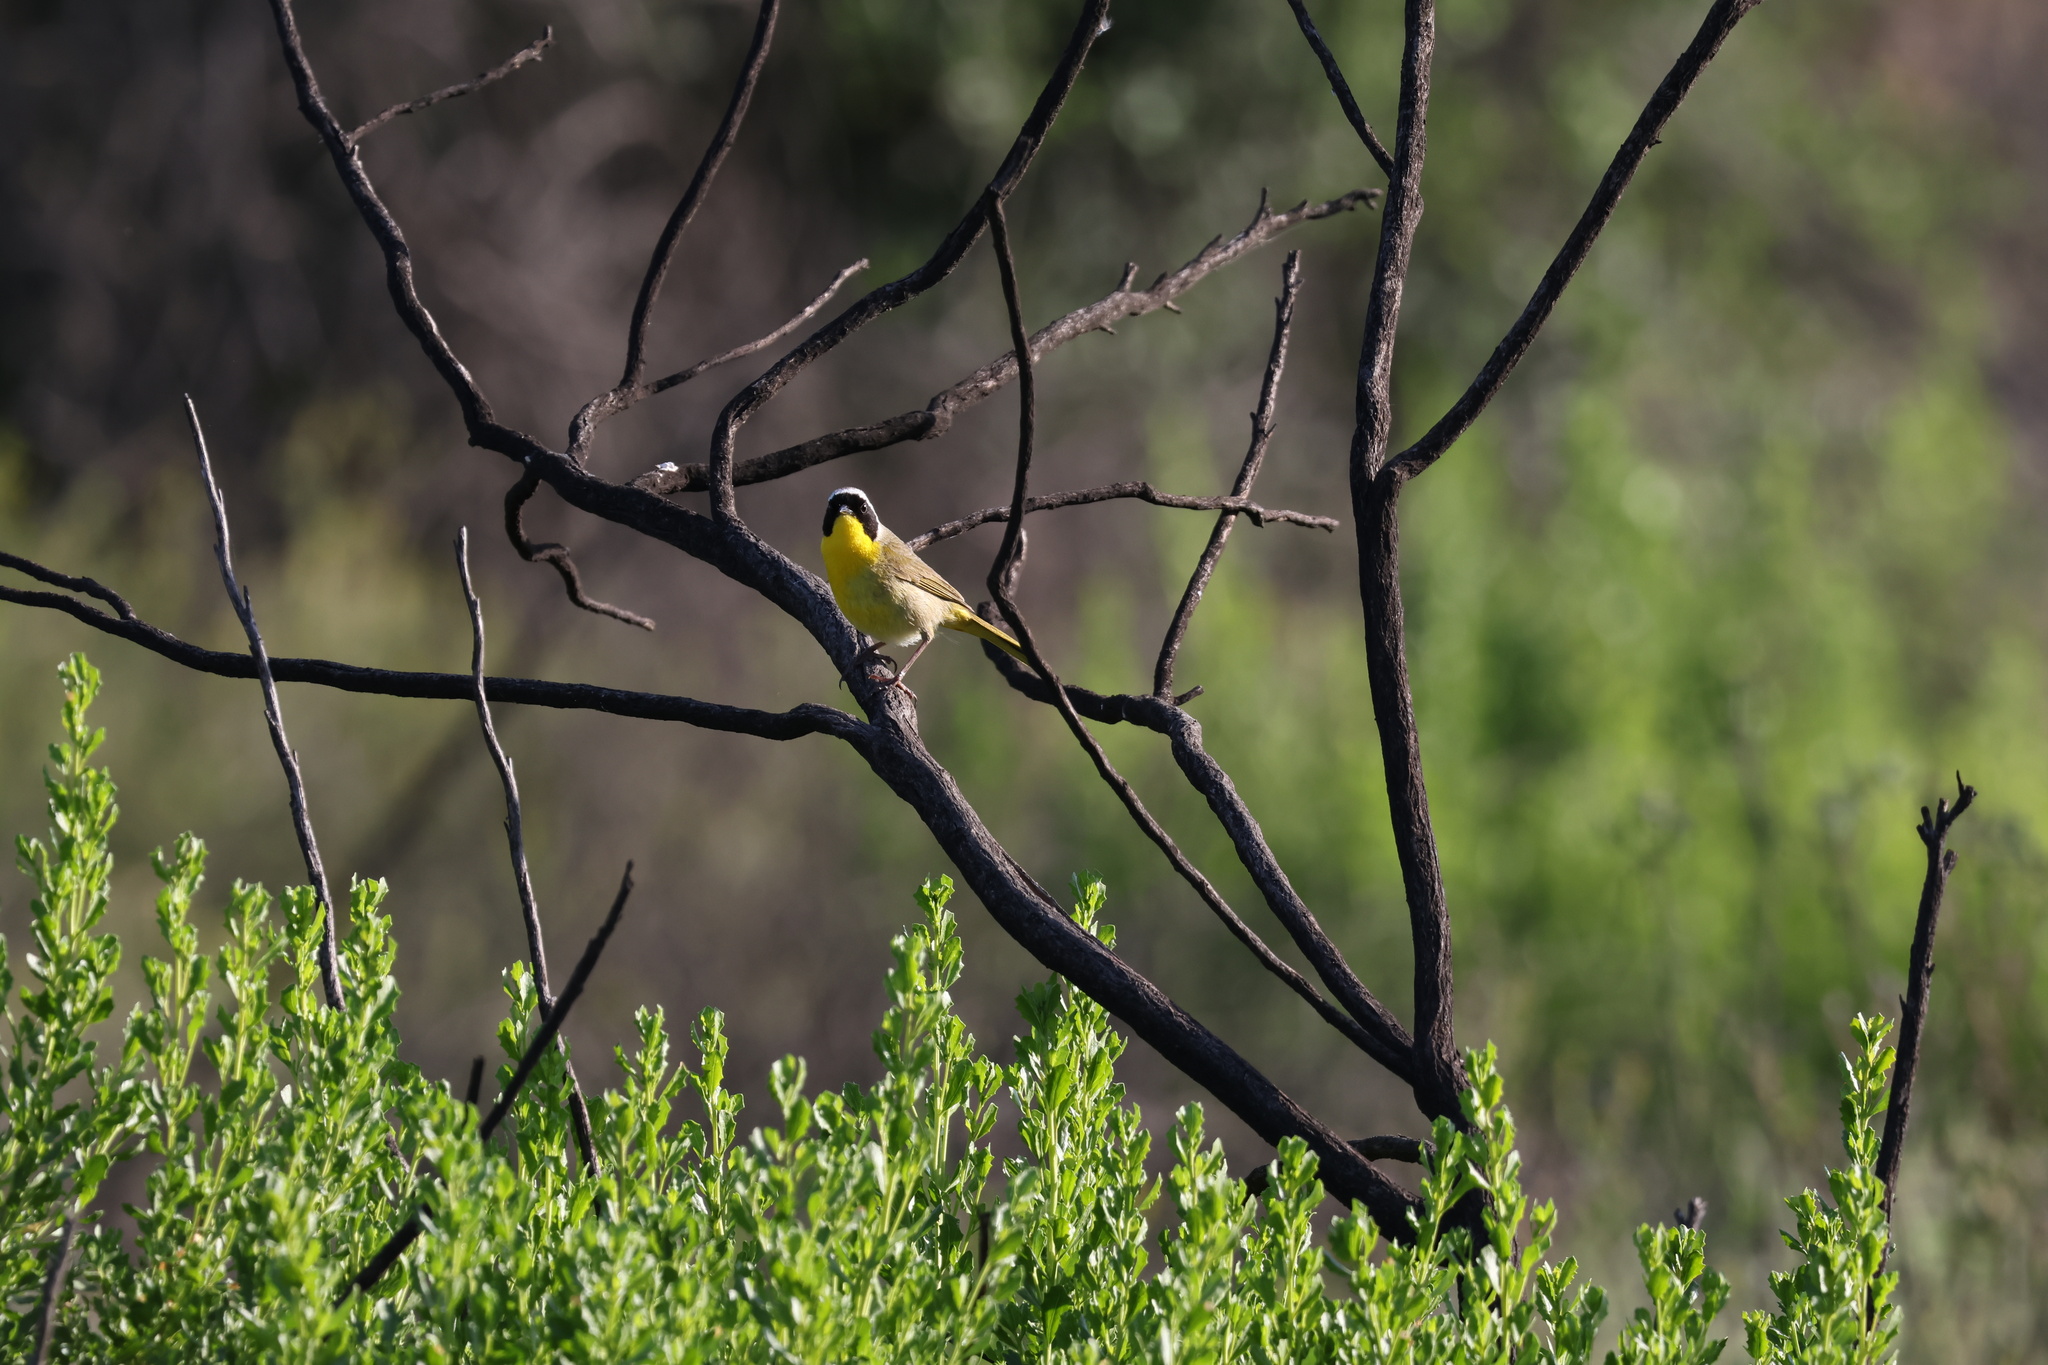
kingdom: Animalia
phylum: Chordata
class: Aves
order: Passeriformes
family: Parulidae
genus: Geothlypis
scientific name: Geothlypis trichas
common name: Common yellowthroat
